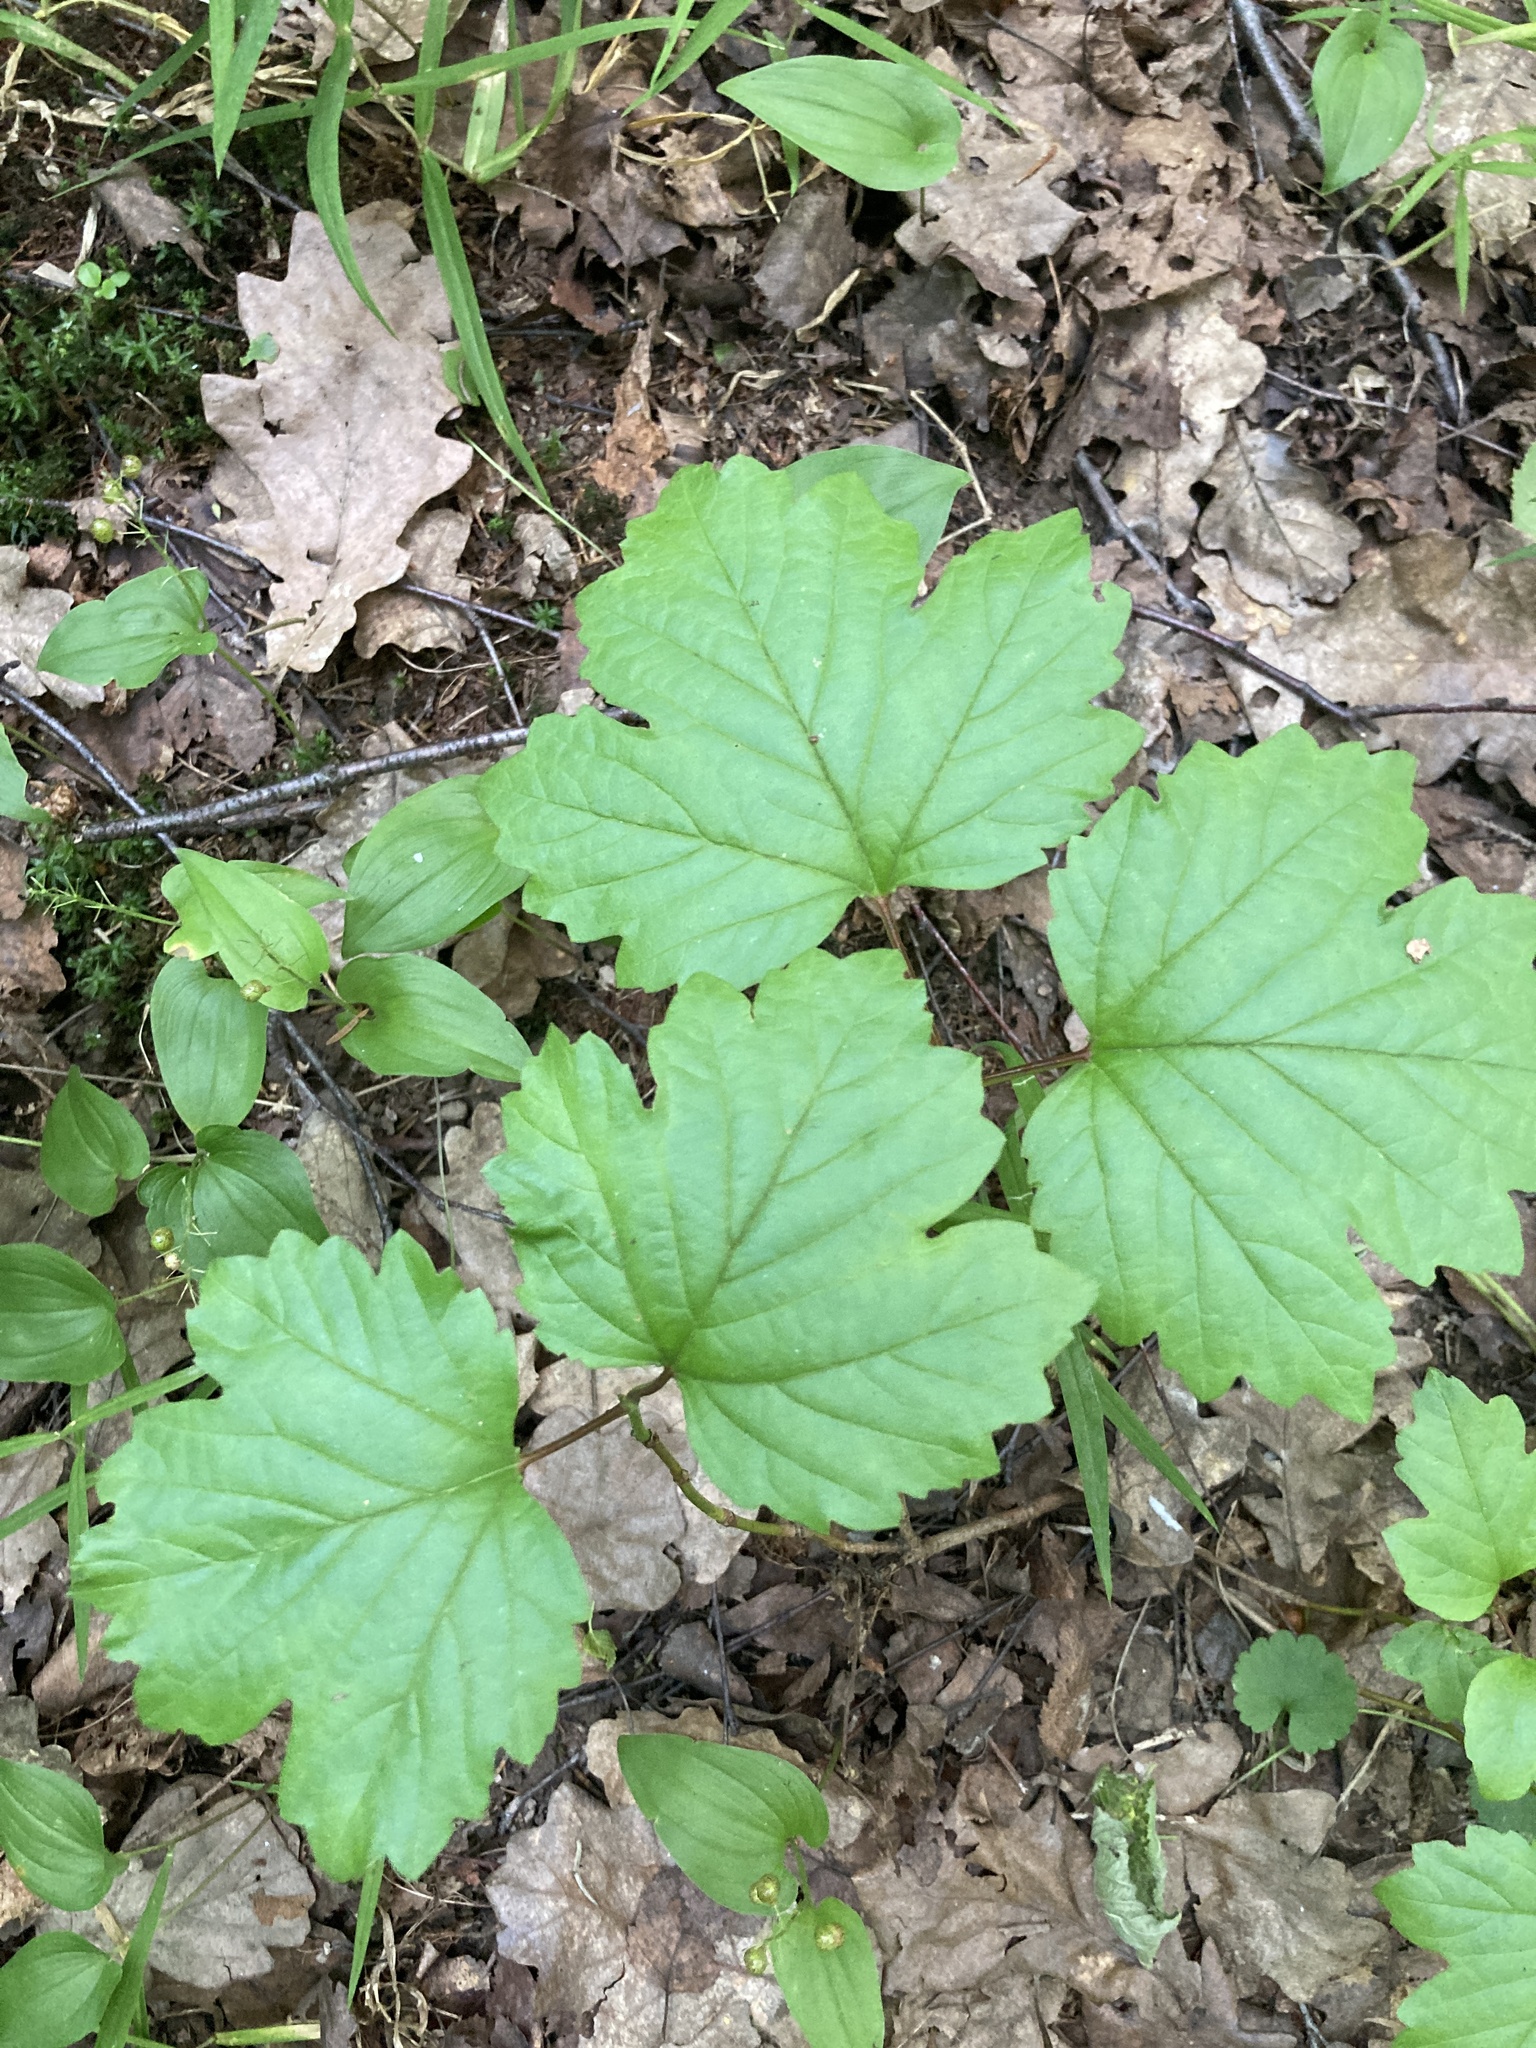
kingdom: Plantae
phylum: Tracheophyta
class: Magnoliopsida
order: Dipsacales
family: Viburnaceae
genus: Viburnum
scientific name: Viburnum opulus
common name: Guelder-rose
